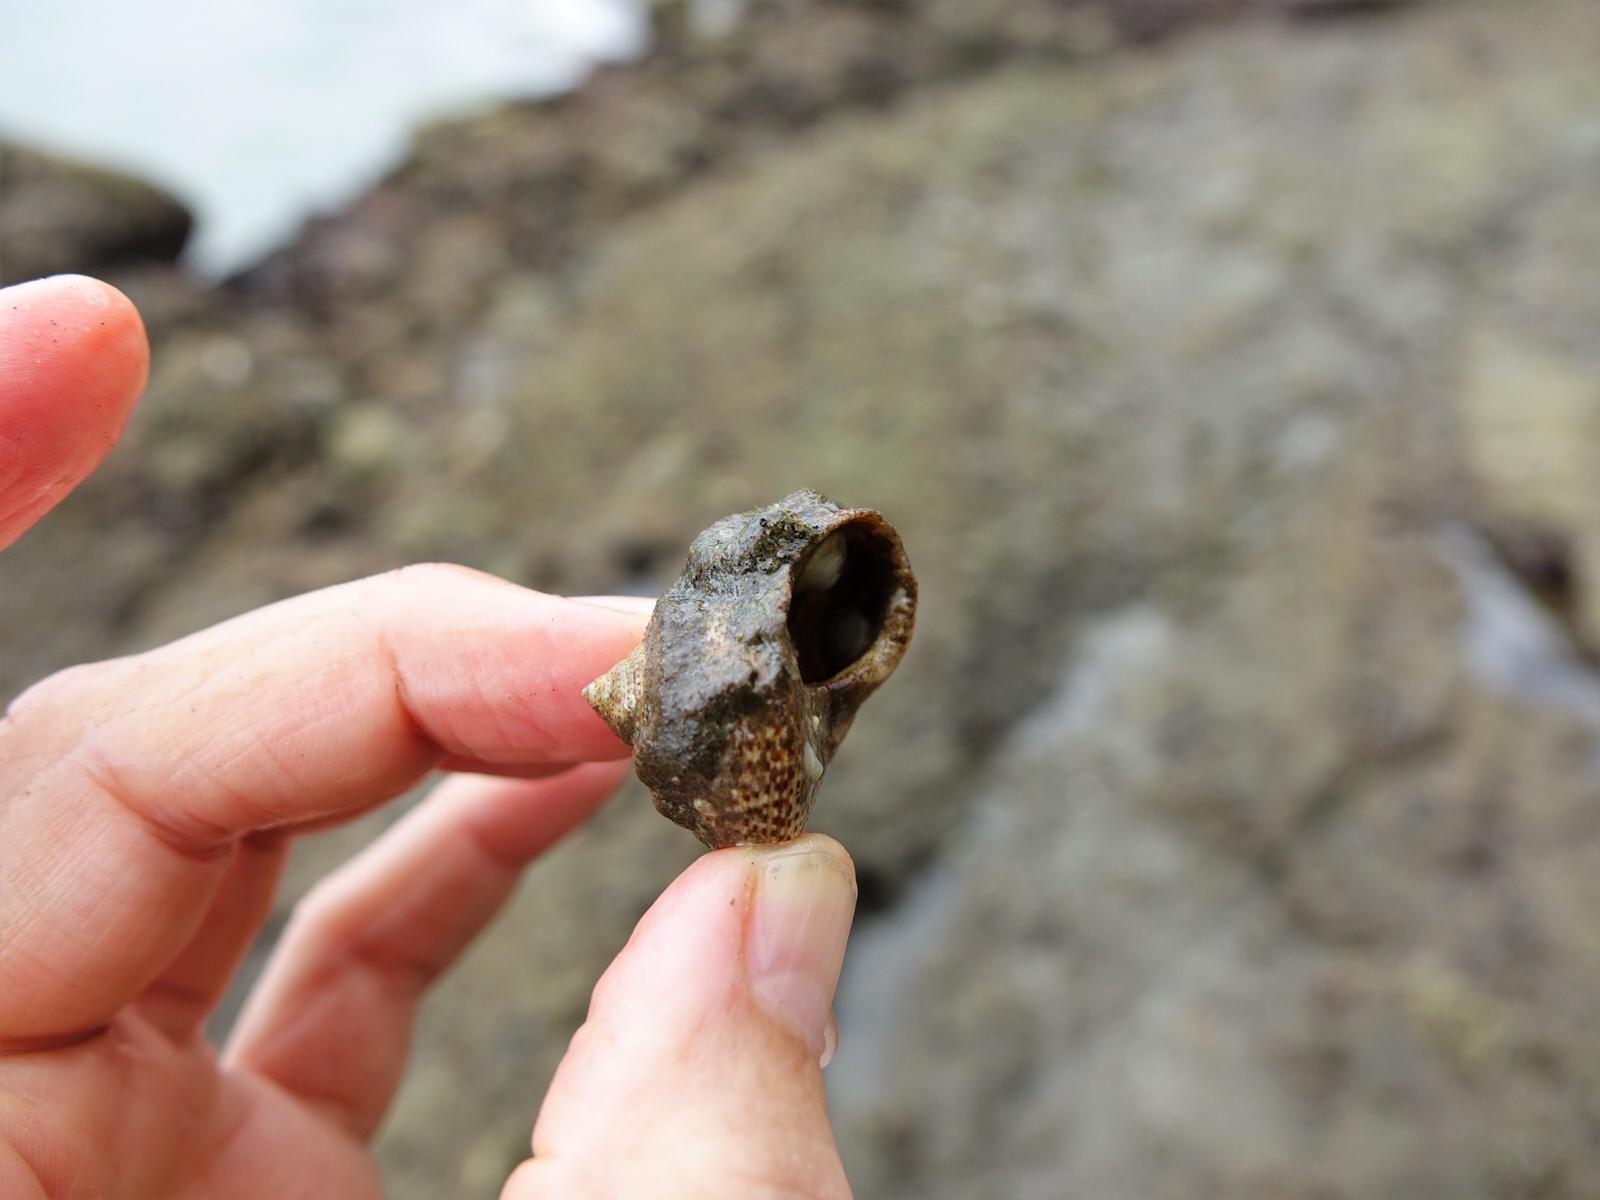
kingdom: Animalia
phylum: Mollusca
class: Gastropoda
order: Trochida
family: Calliostomatidae
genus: Maurea
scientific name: Maurea punctulata
